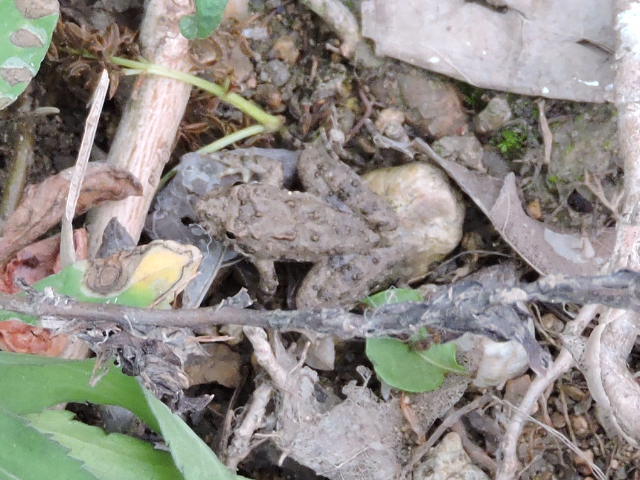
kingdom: Animalia
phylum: Chordata
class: Amphibia
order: Anura
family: Hylidae
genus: Acris
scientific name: Acris blanchardi
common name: Blanchard's cricket frog
